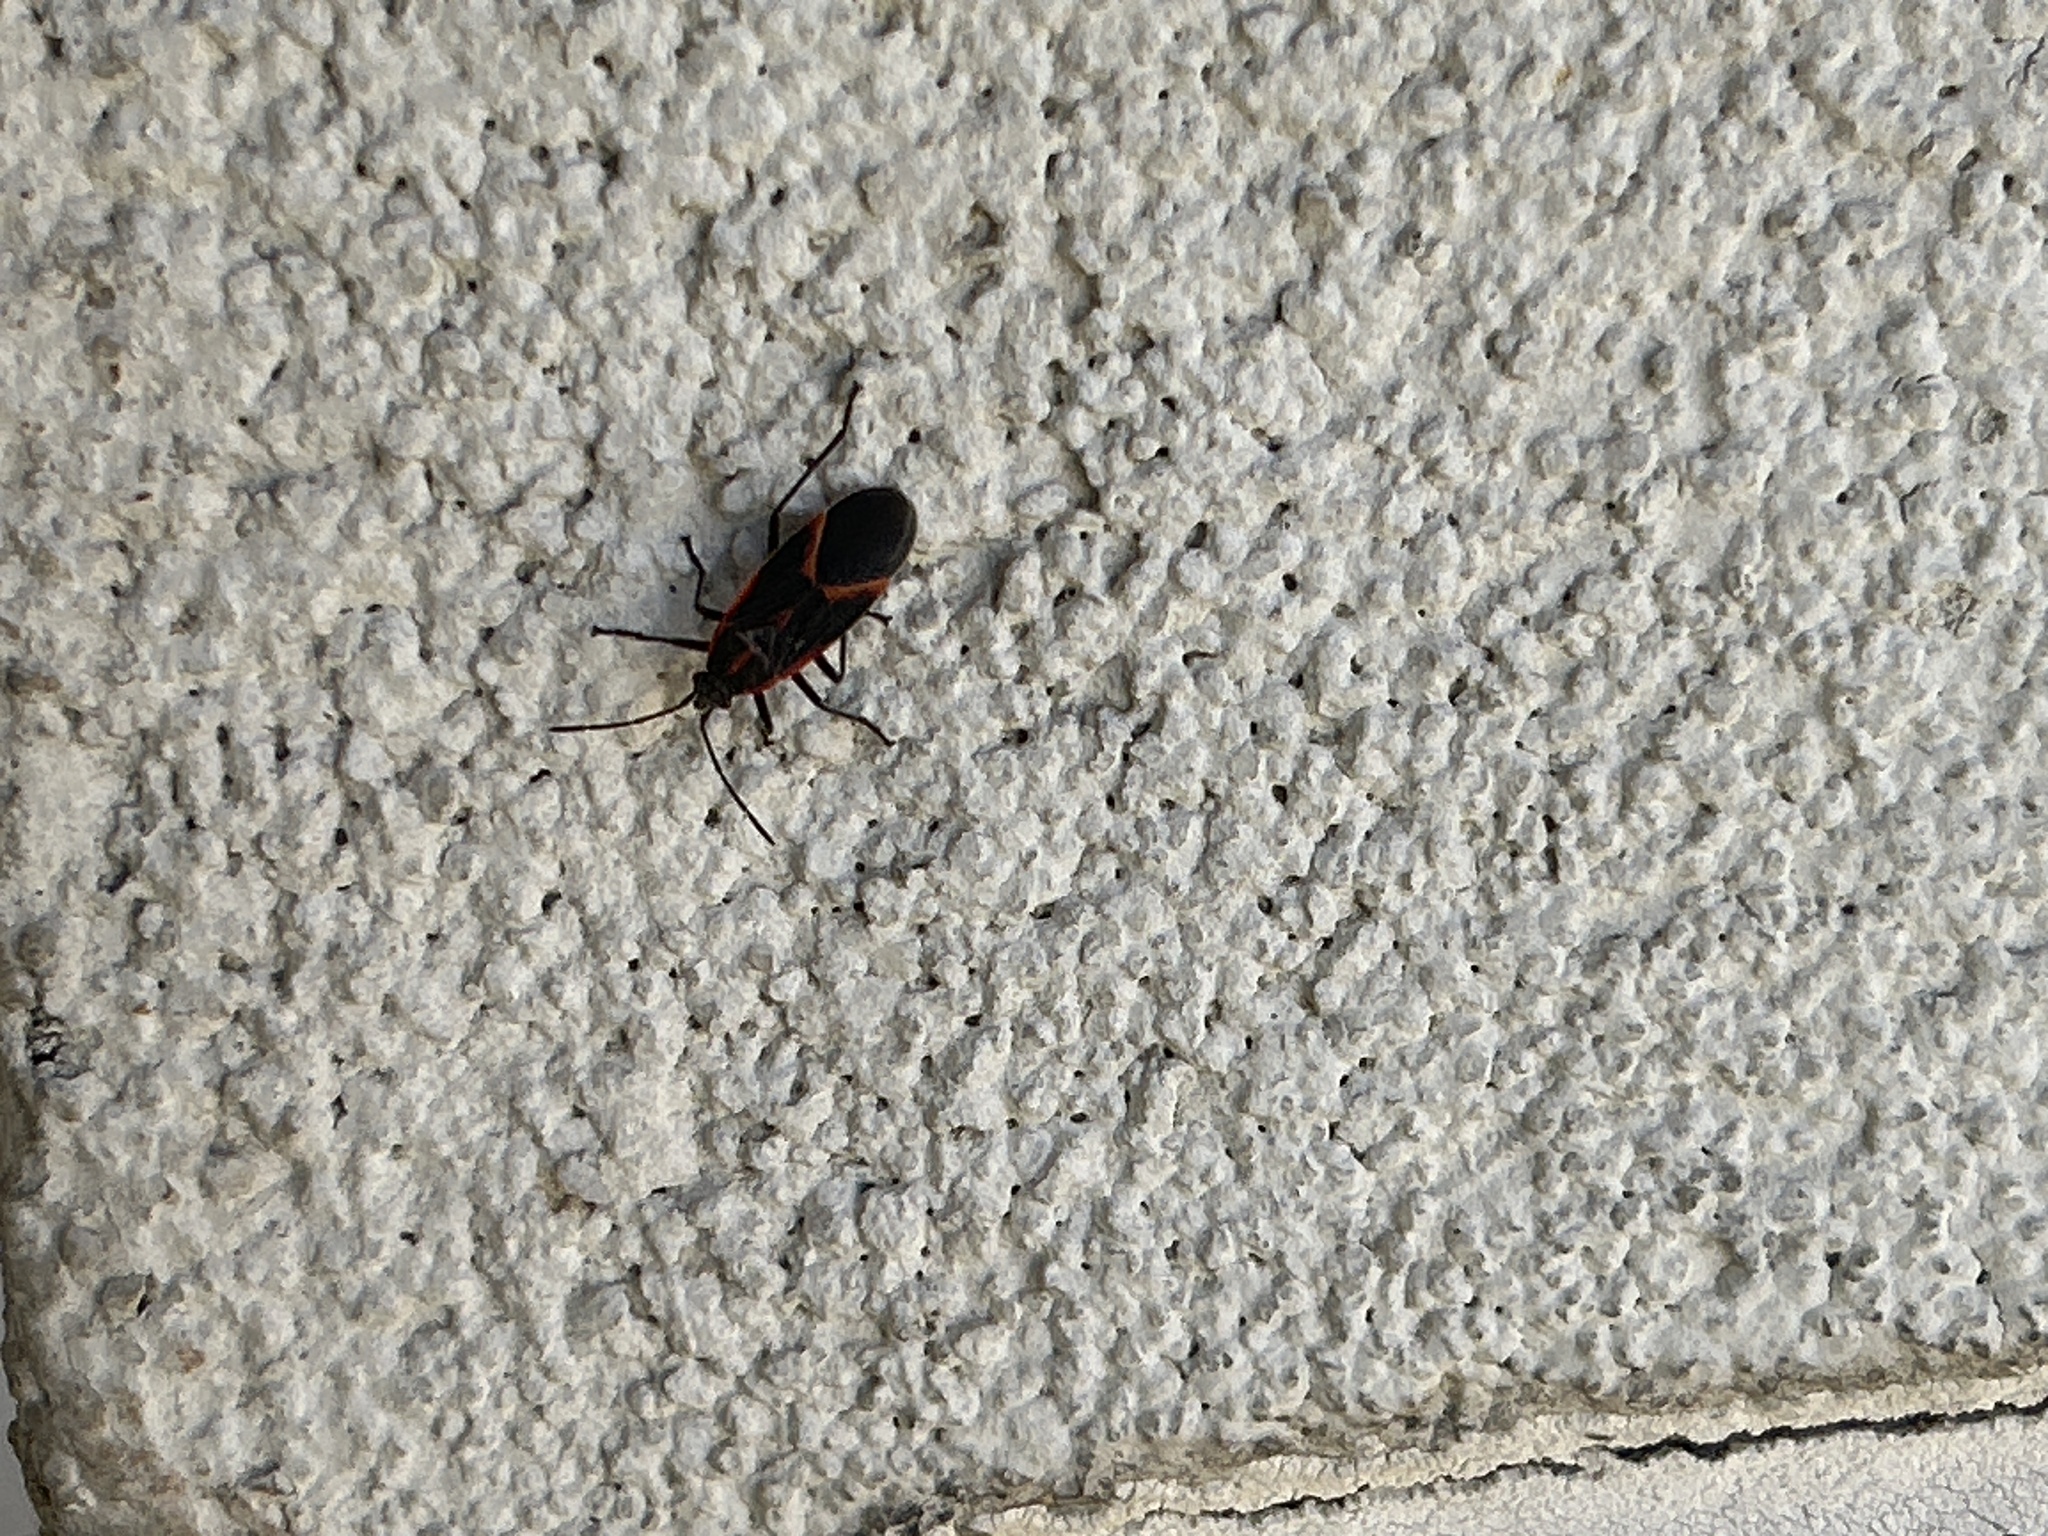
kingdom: Animalia
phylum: Arthropoda
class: Insecta
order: Hemiptera
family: Rhopalidae
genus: Boisea
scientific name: Boisea trivittata
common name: Boxelder bug
